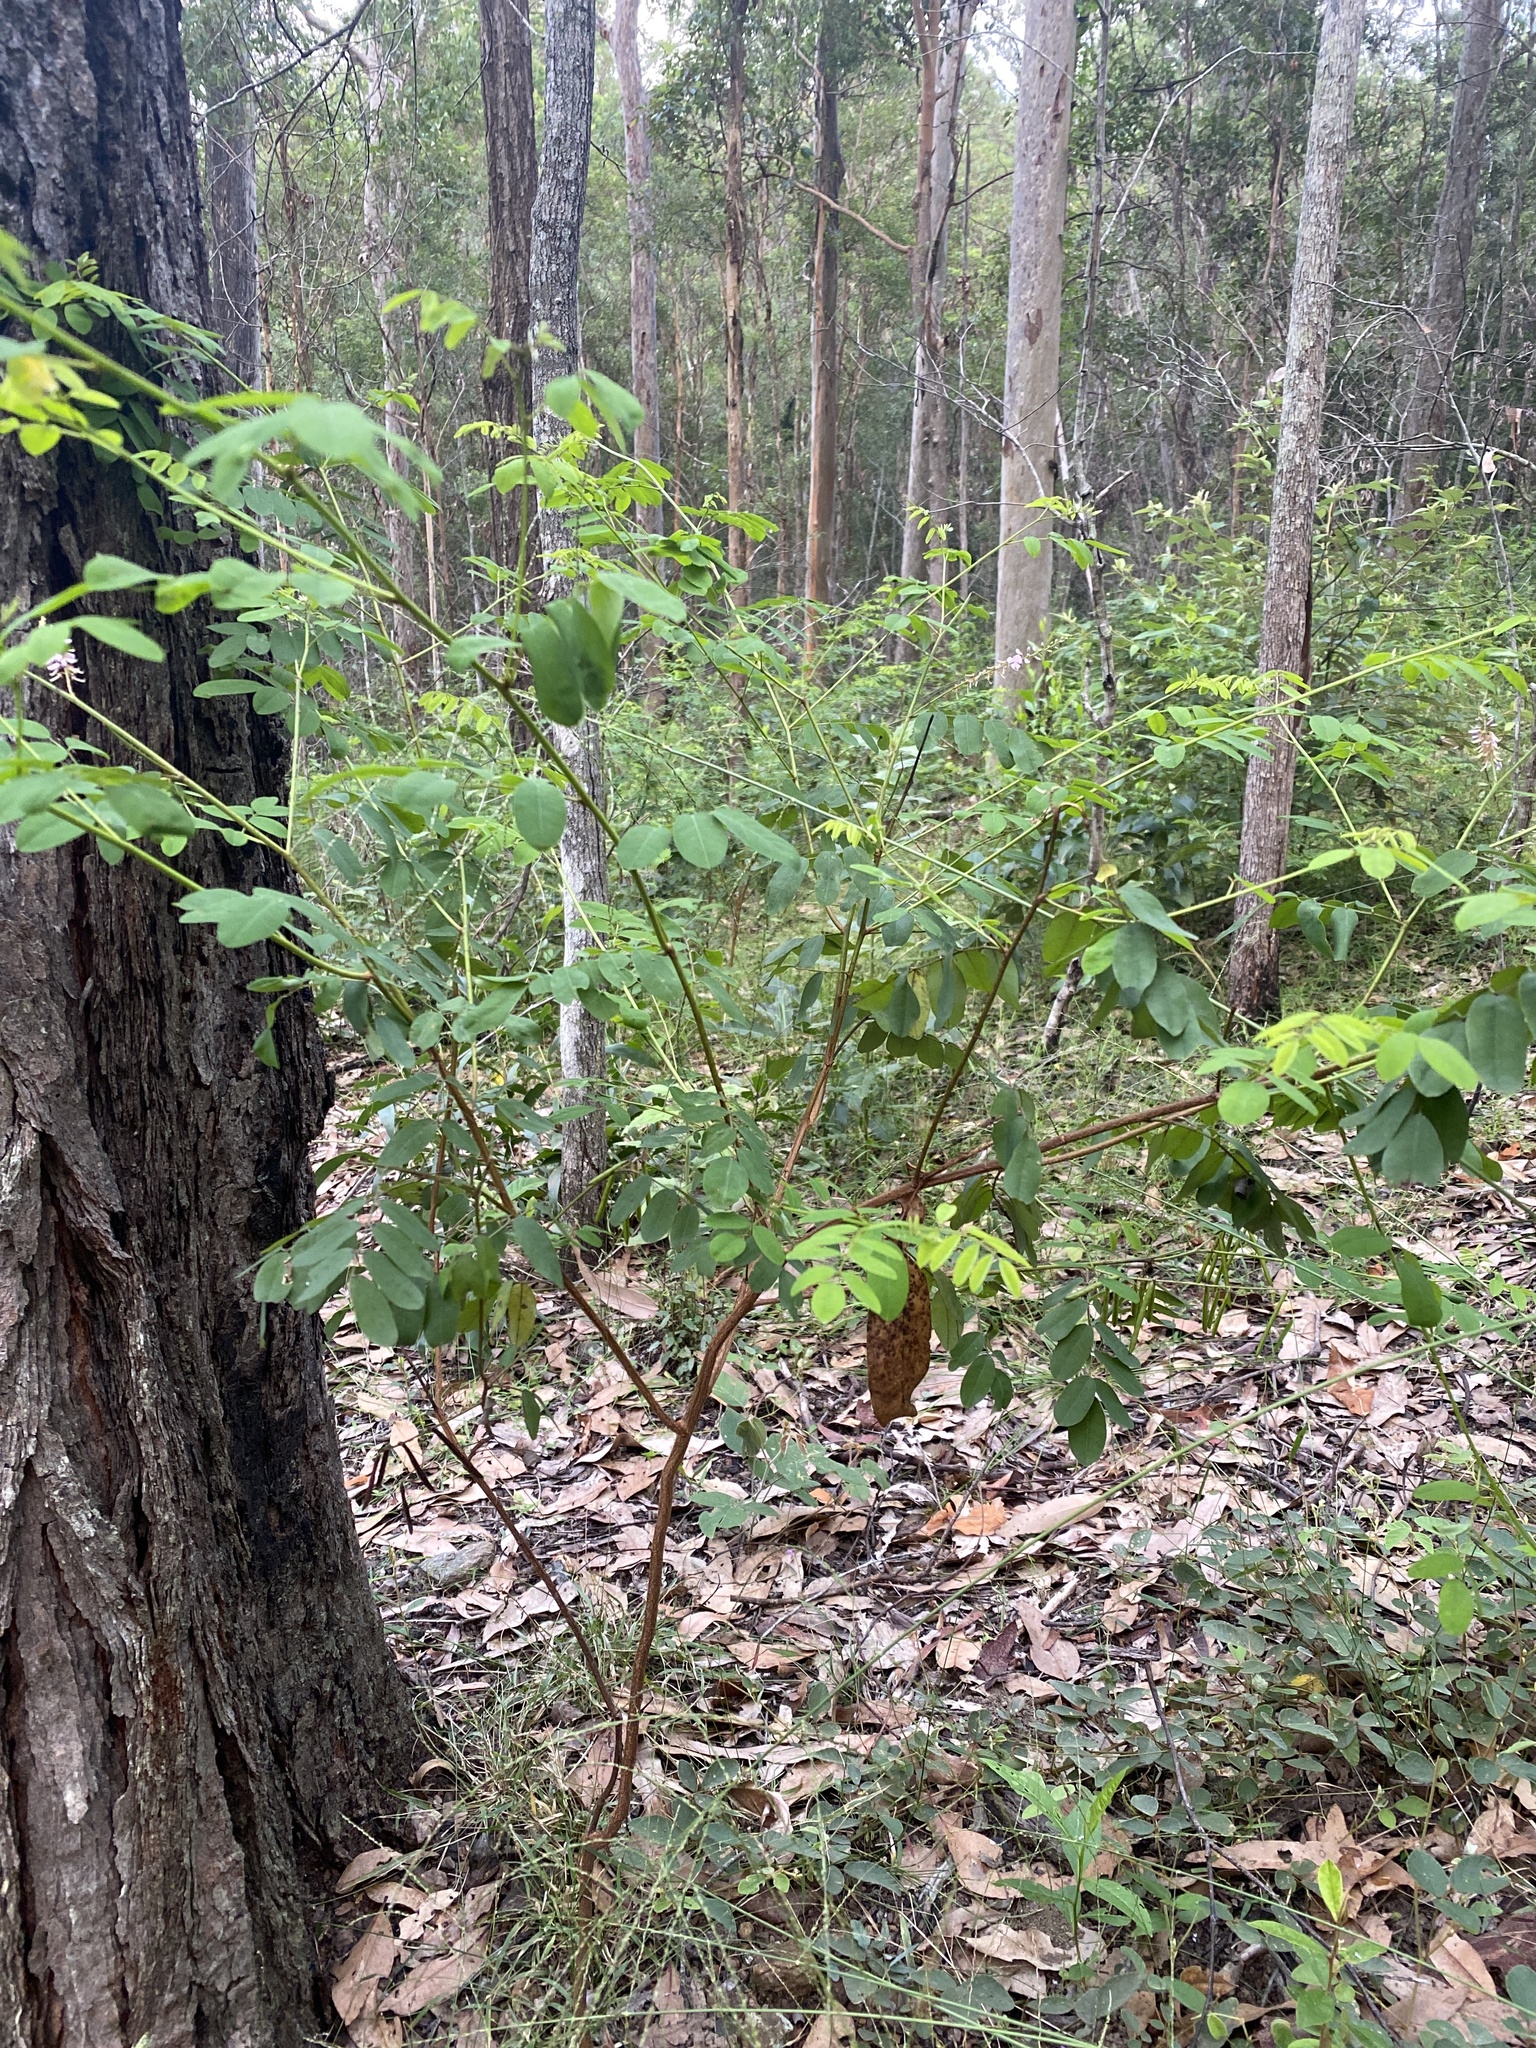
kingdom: Plantae
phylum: Tracheophyta
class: Magnoliopsida
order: Fabales
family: Fabaceae
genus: Indigofera
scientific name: Indigofera australis
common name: Australian indigo
